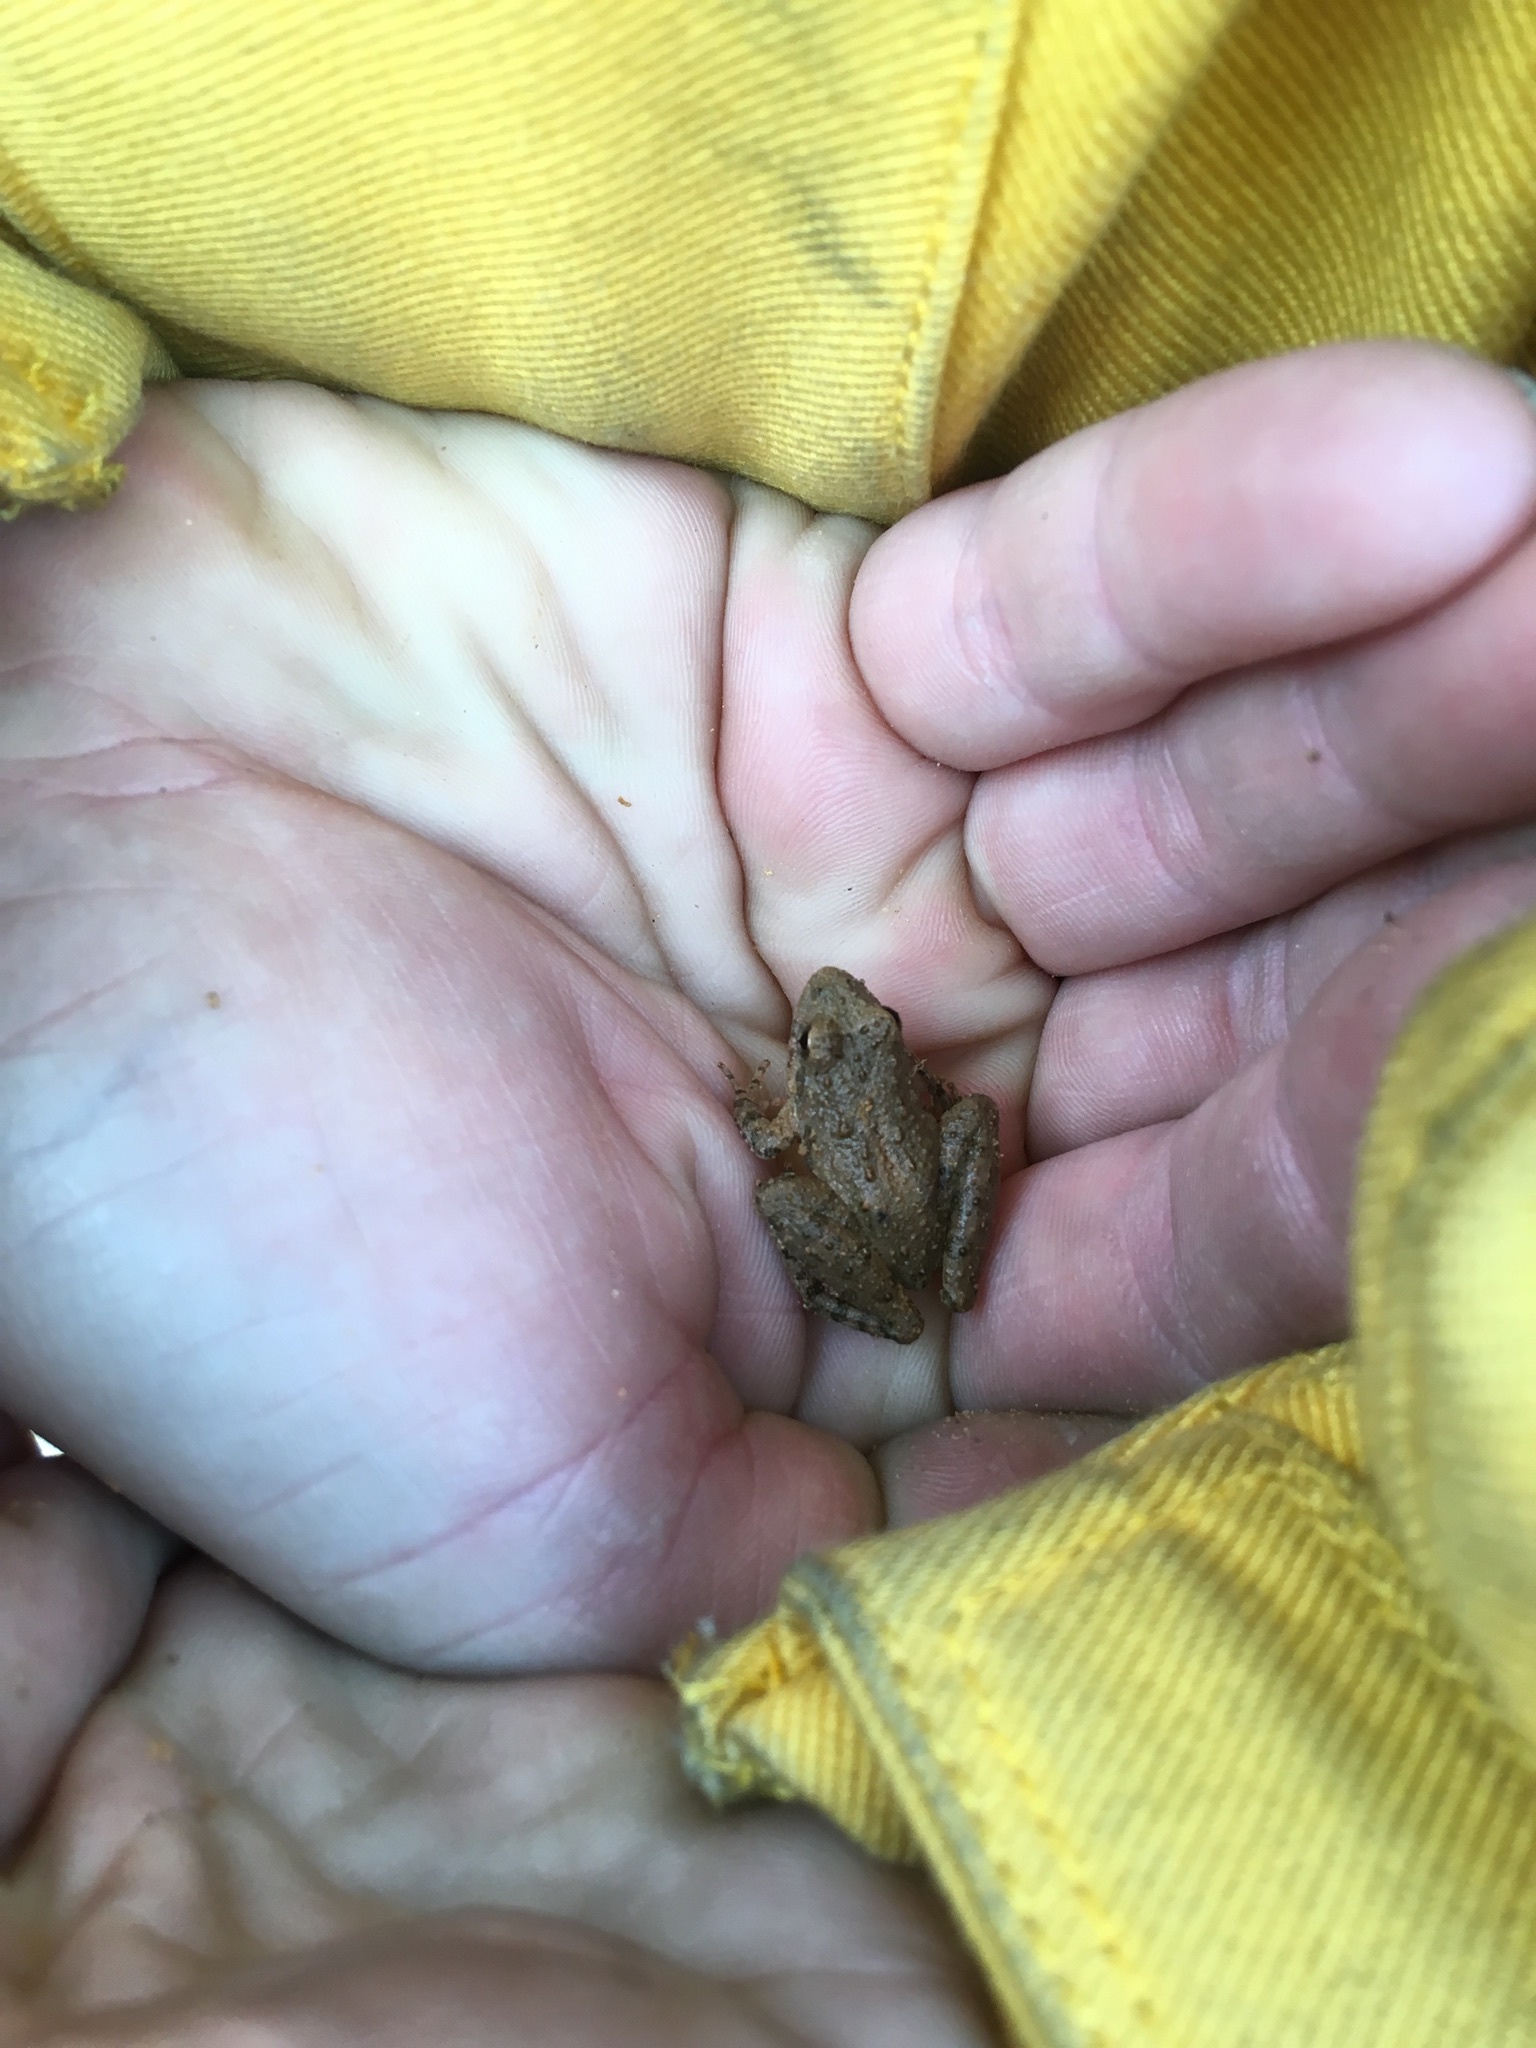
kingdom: Animalia
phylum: Chordata
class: Amphibia
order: Anura
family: Hylidae
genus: Acris
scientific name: Acris blanchardi
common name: Blanchard's cricket frog
